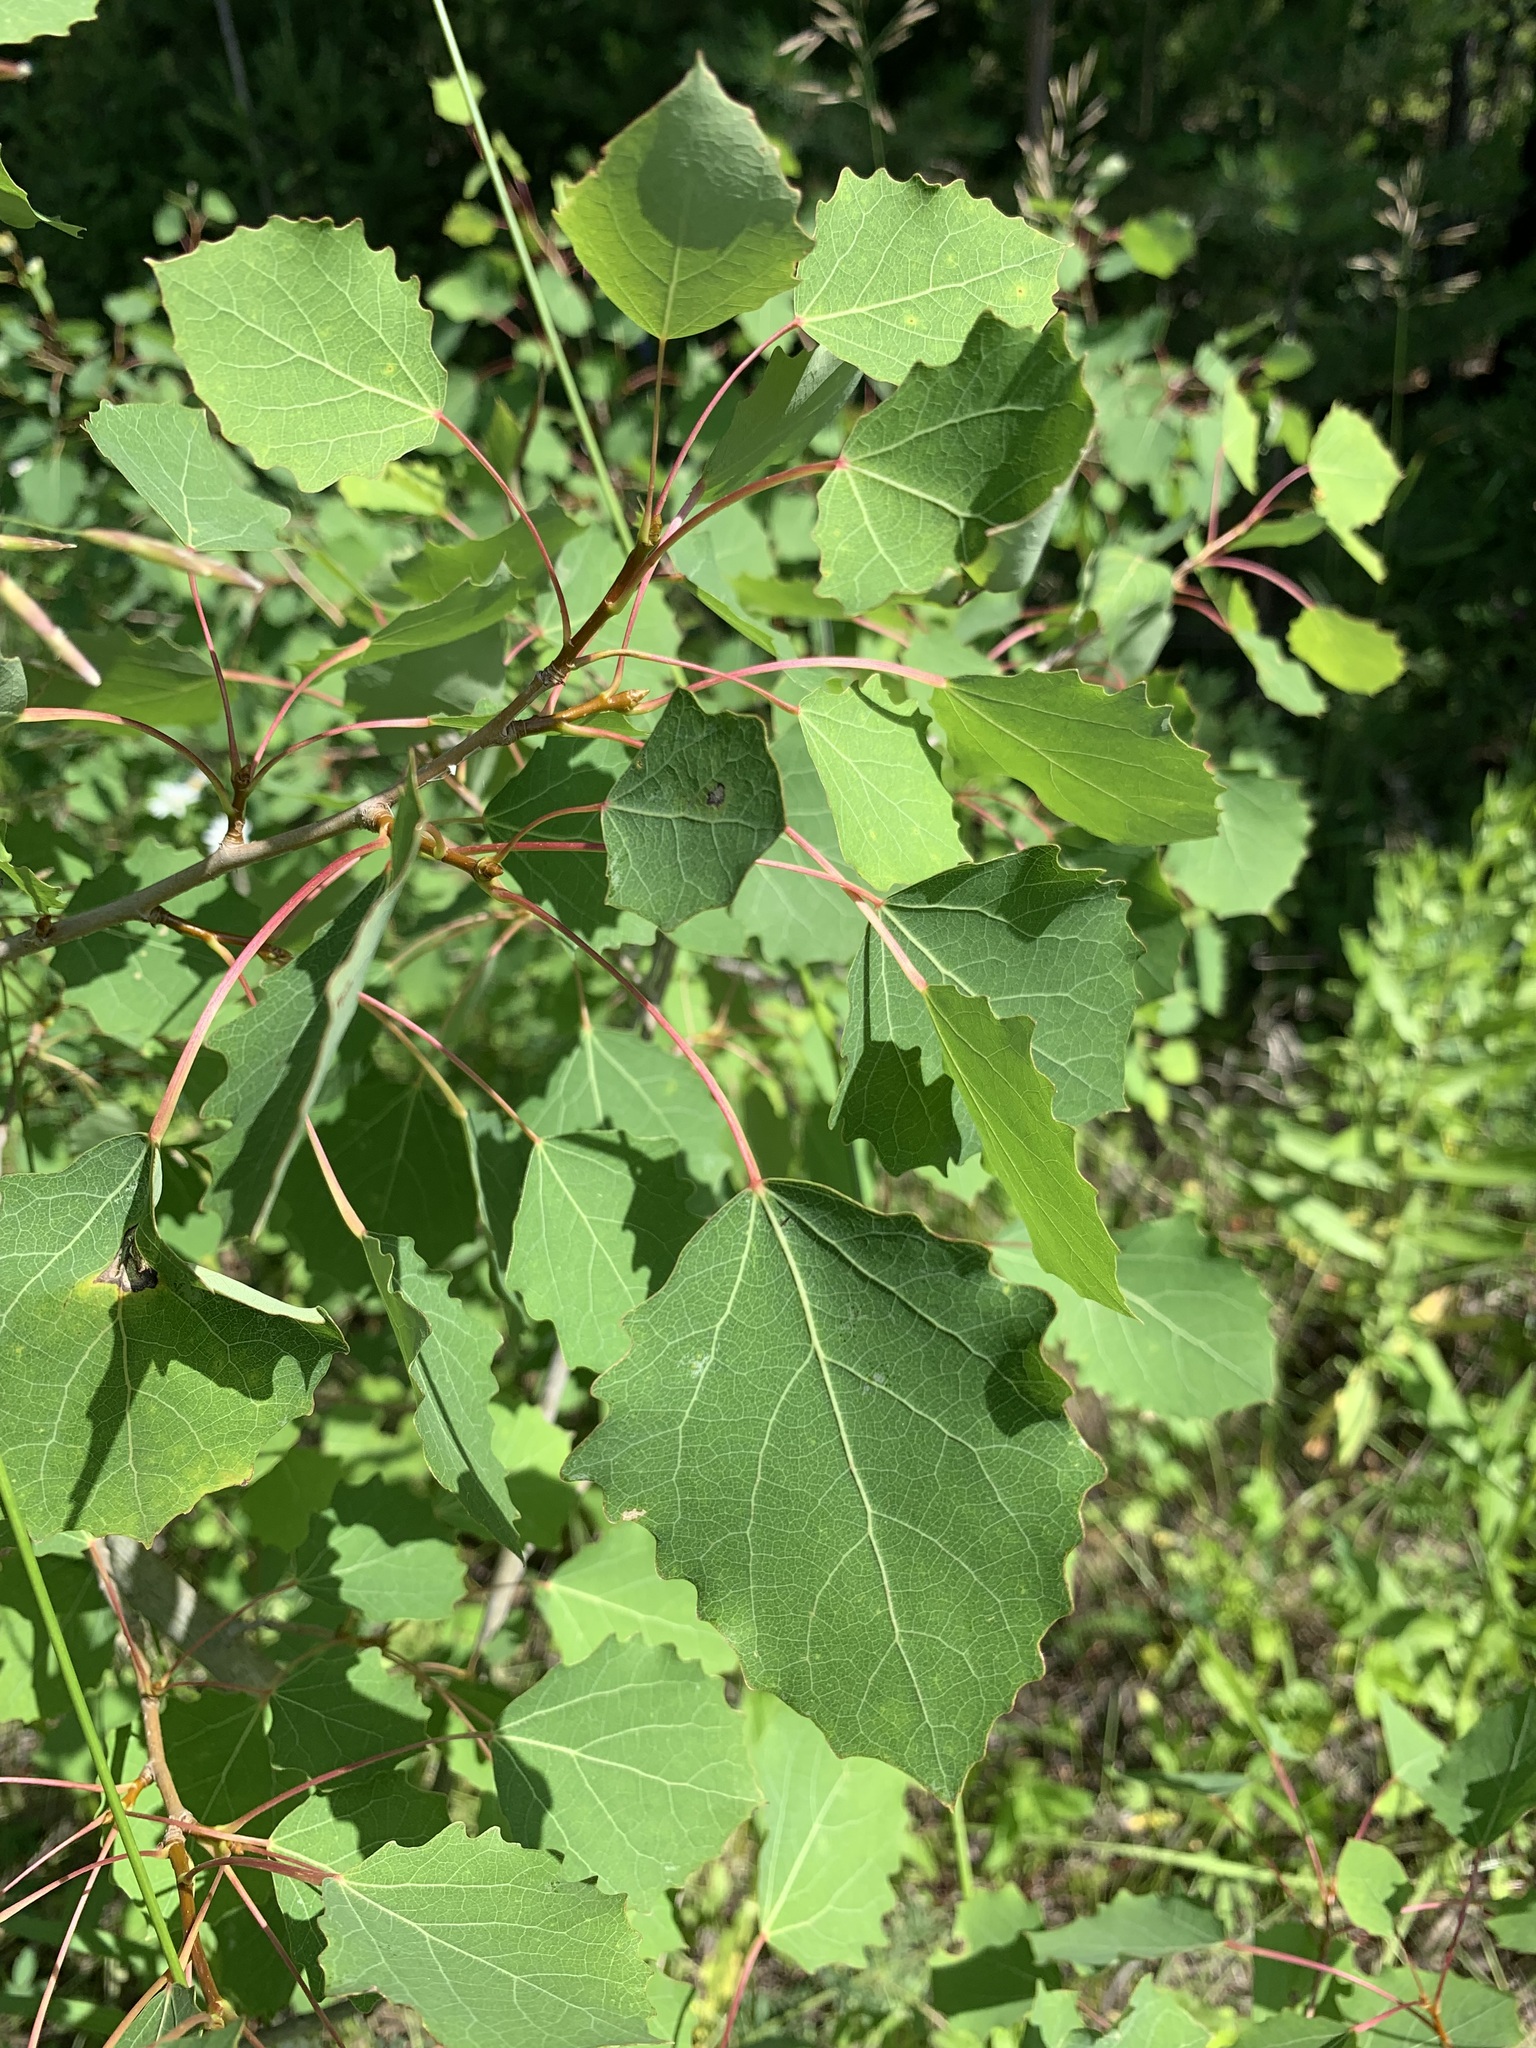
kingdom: Plantae
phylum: Tracheophyta
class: Magnoliopsida
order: Malpighiales
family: Salicaceae
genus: Populus
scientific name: Populus tremula
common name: European aspen
